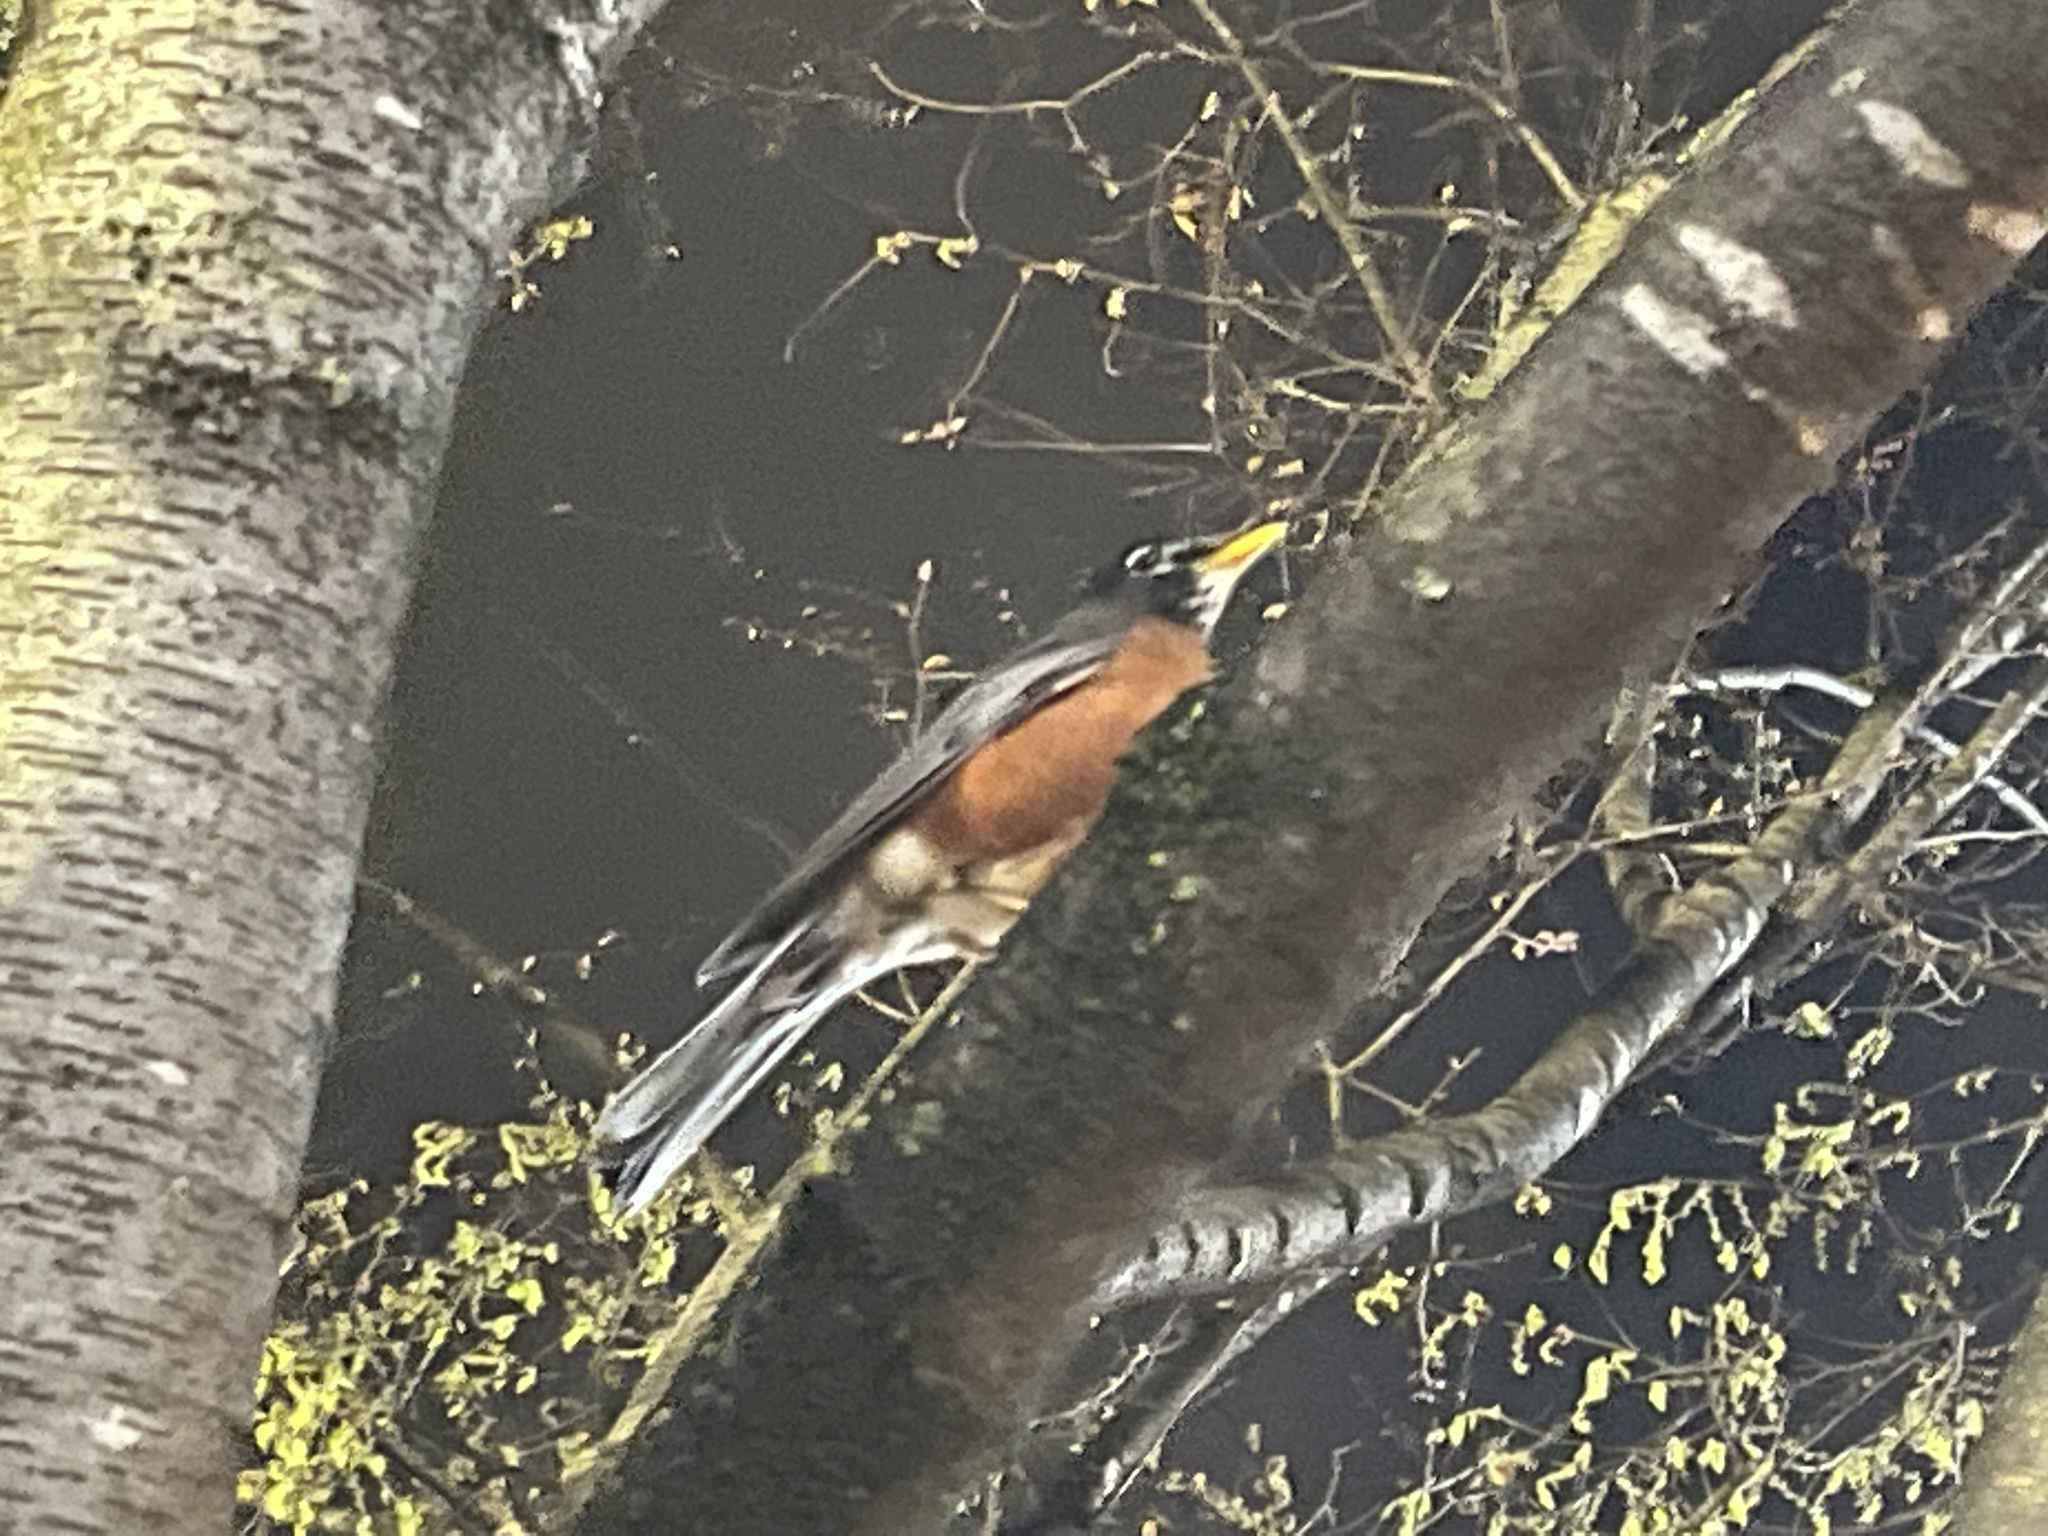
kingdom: Animalia
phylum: Chordata
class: Aves
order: Passeriformes
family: Turdidae
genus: Turdus
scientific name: Turdus migratorius
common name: American robin
